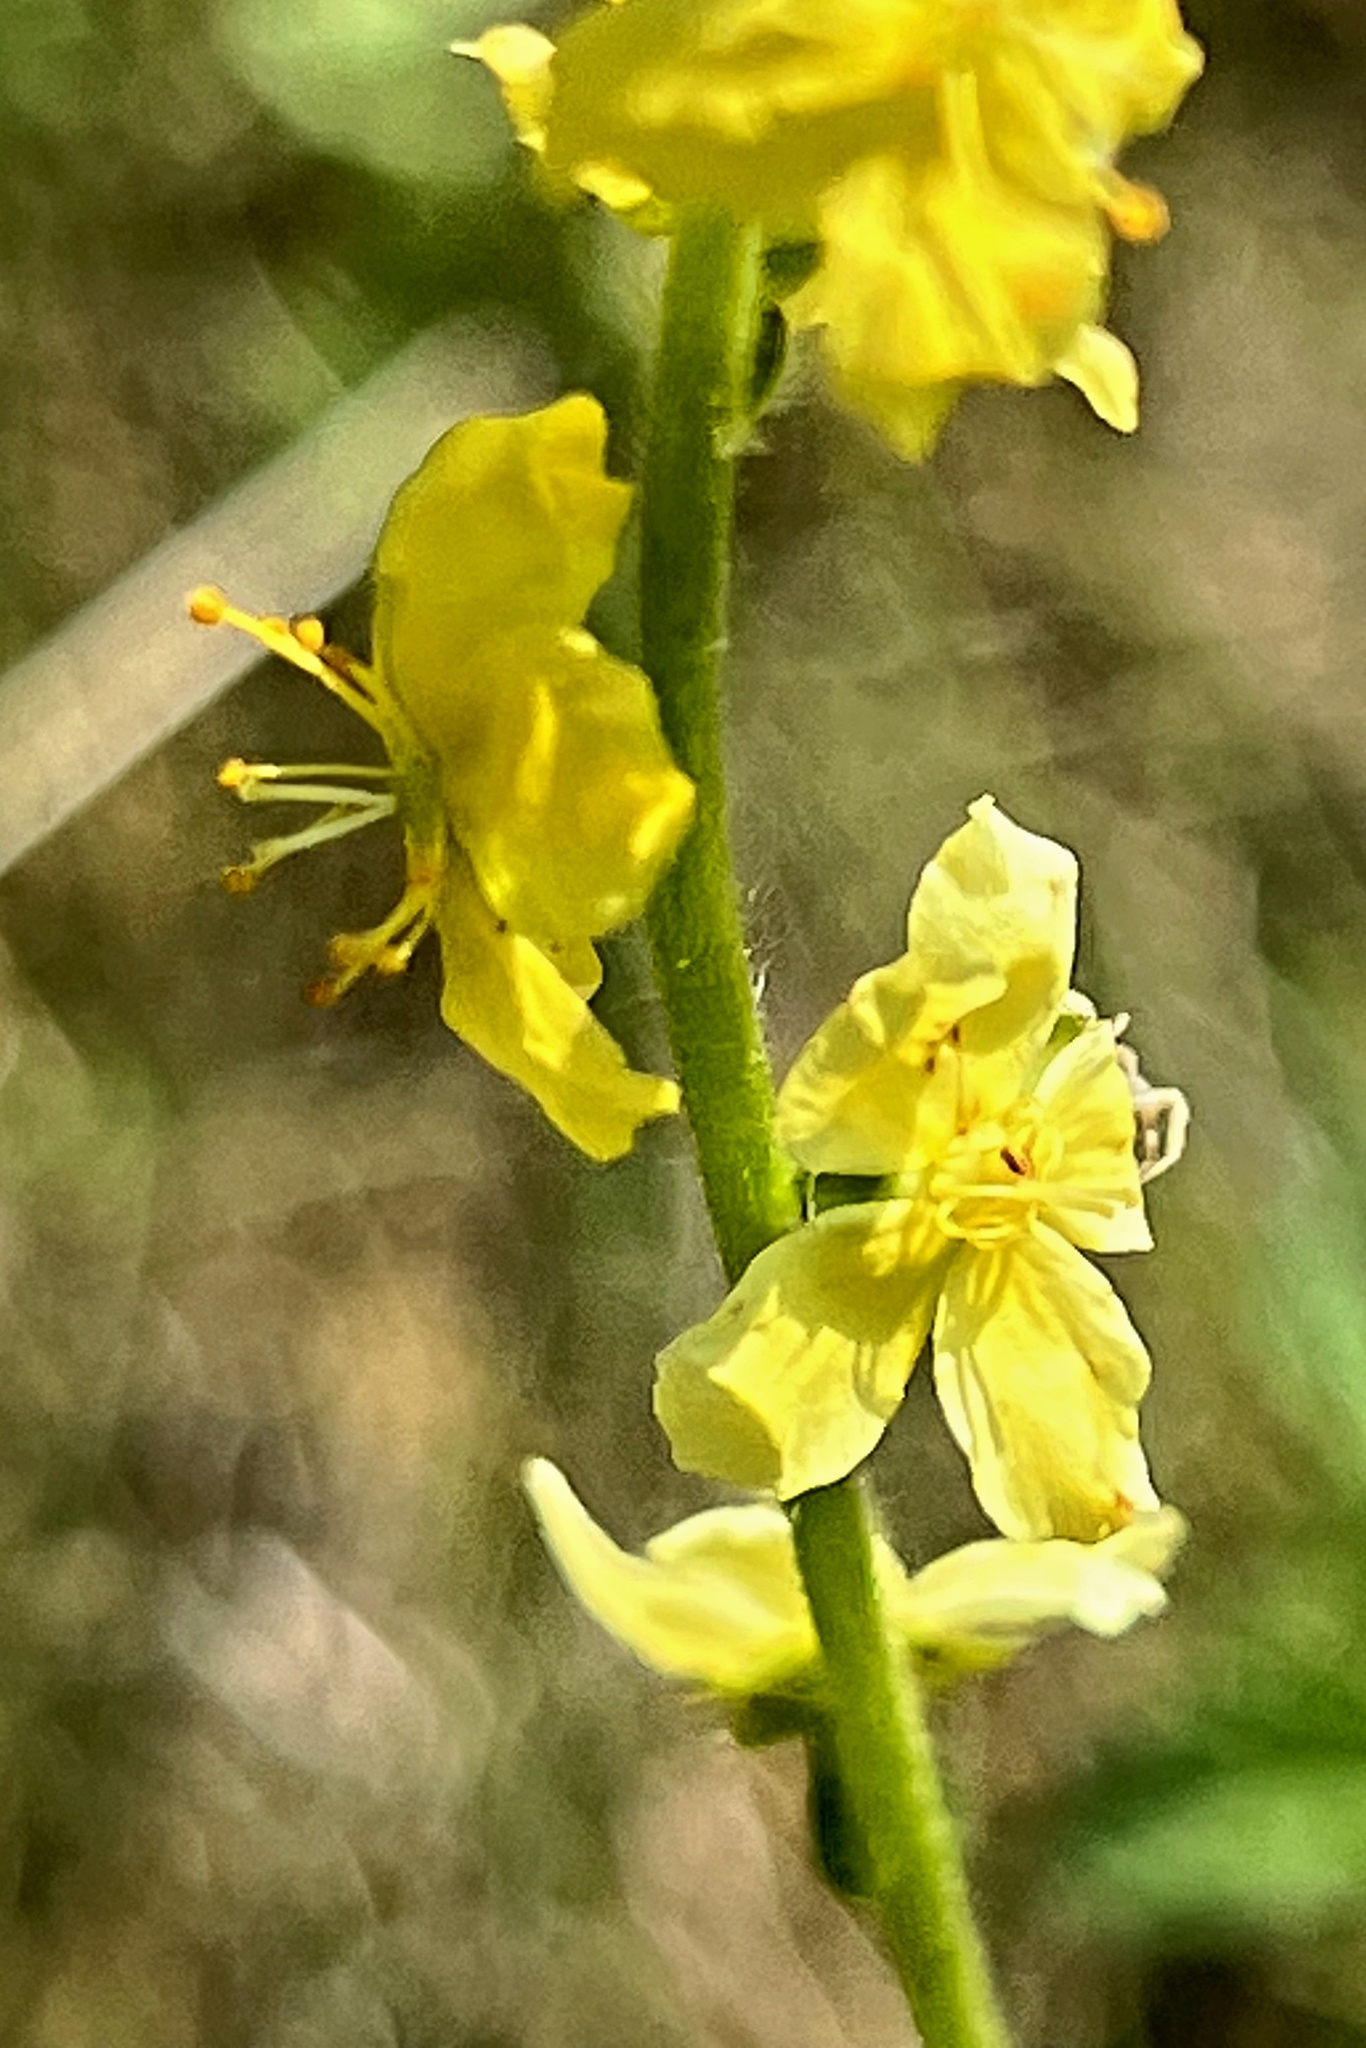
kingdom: Plantae
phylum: Tracheophyta
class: Magnoliopsida
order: Rosales
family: Rosaceae
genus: Agrimonia
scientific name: Agrimonia eupatoria
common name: Agrimony
